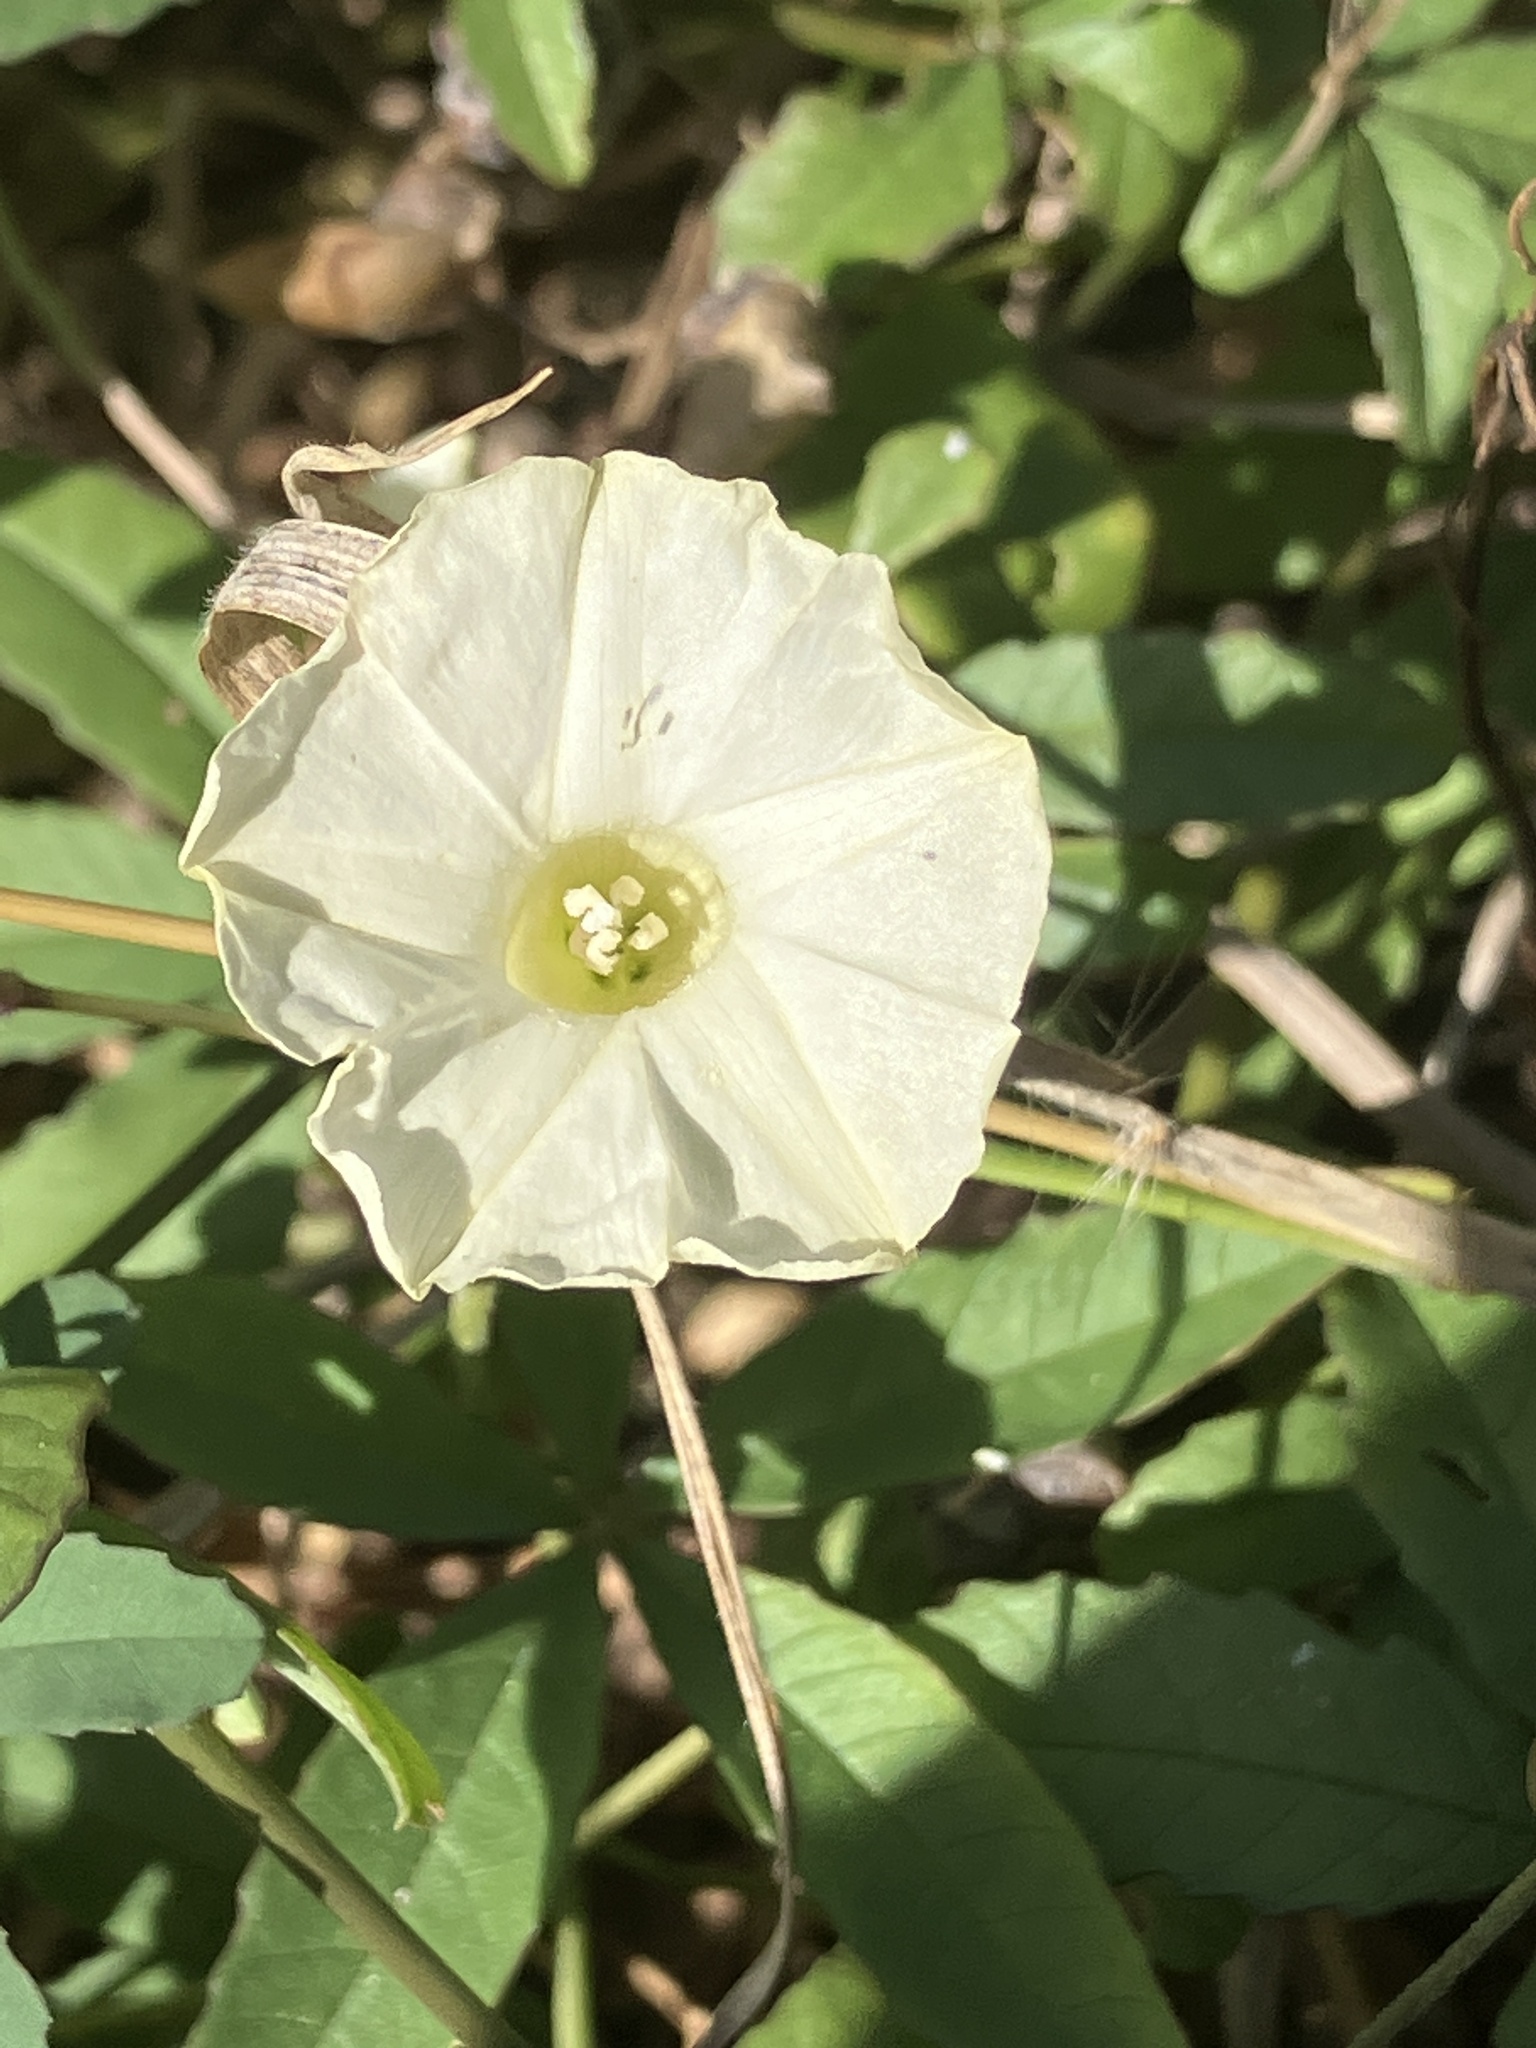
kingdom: Plantae
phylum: Tracheophyta
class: Magnoliopsida
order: Solanales
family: Convolvulaceae
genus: Distimake
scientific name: Distimake quinquefolius
